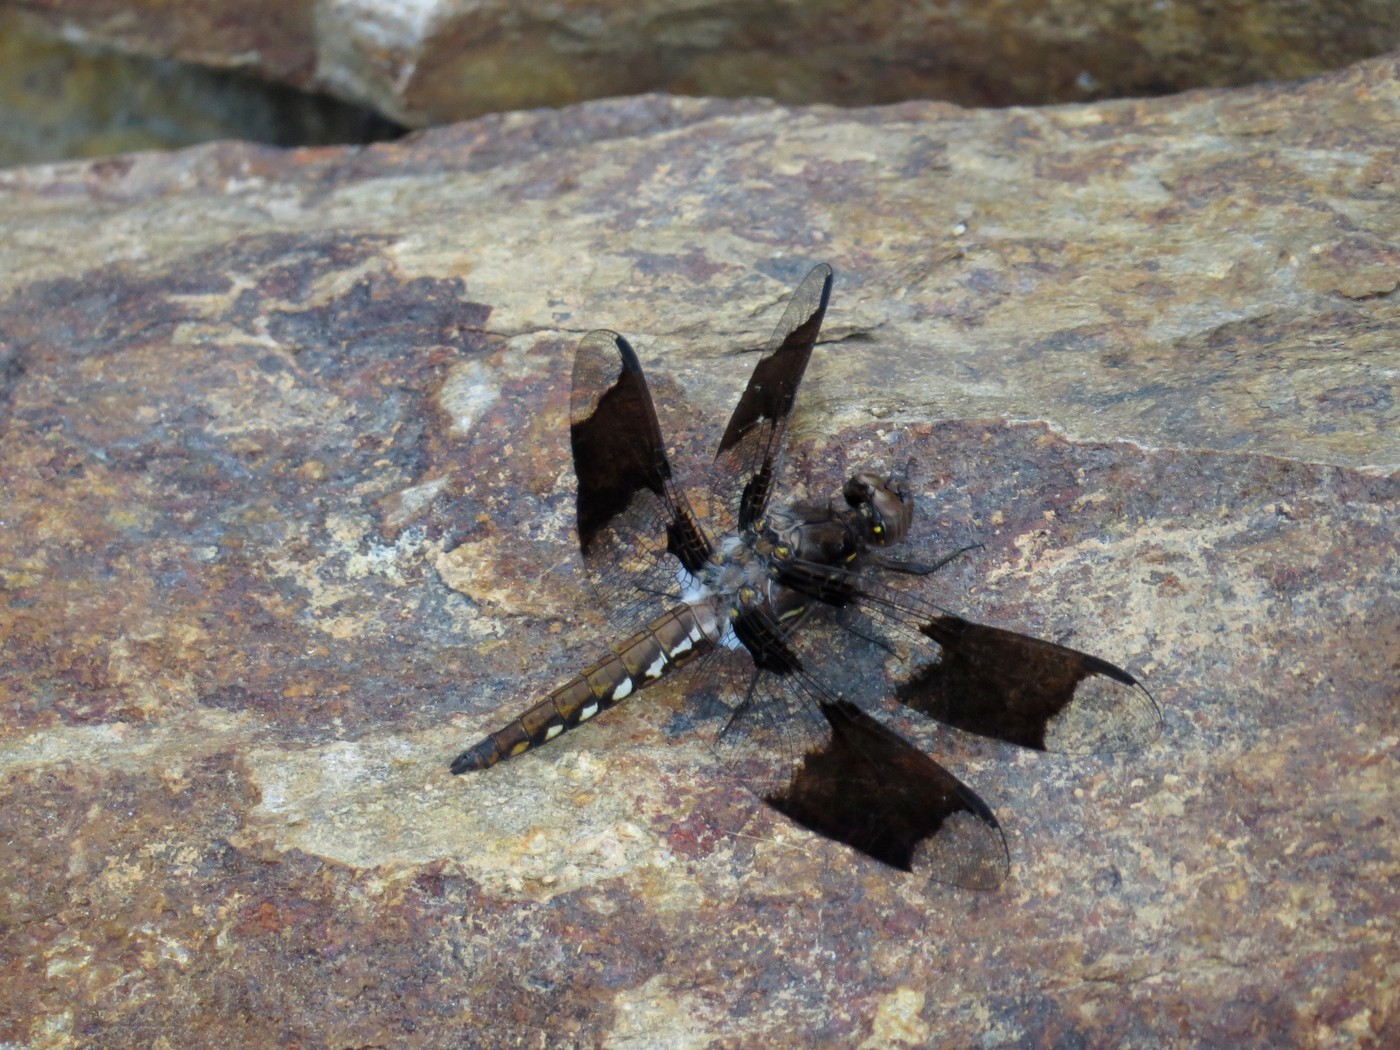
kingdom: Animalia
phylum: Arthropoda
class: Insecta
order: Odonata
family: Libellulidae
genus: Plathemis
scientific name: Plathemis lydia
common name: Common whitetail
